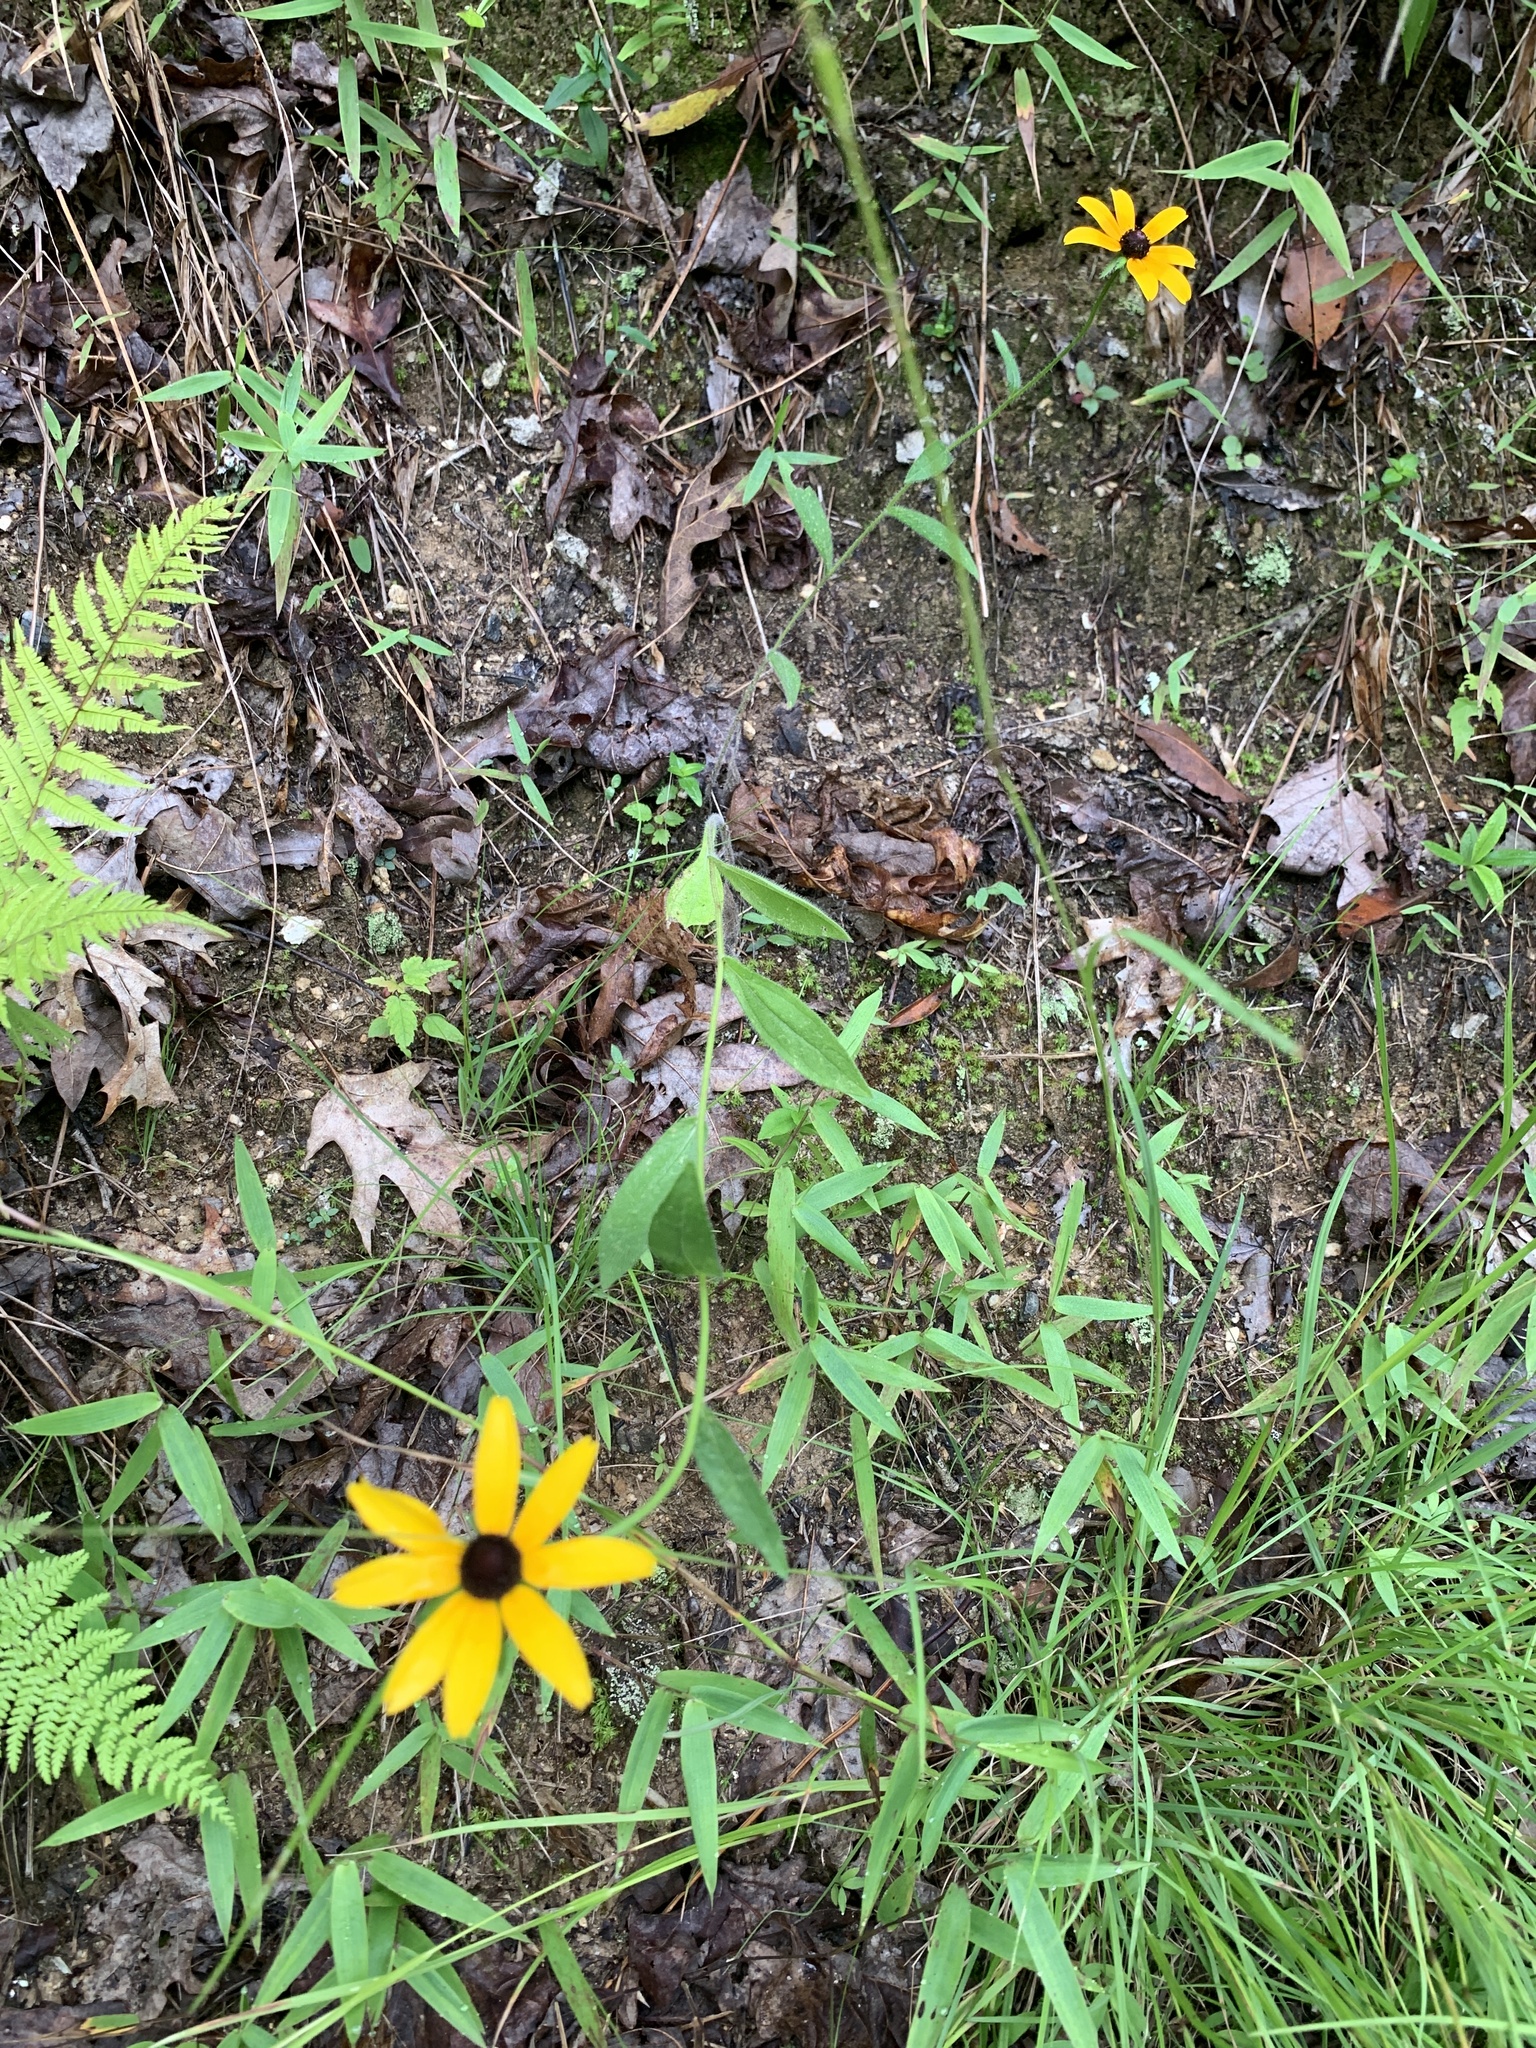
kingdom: Plantae
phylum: Tracheophyta
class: Magnoliopsida
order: Asterales
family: Asteraceae
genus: Rudbeckia
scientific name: Rudbeckia hirta
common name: Black-eyed-susan
